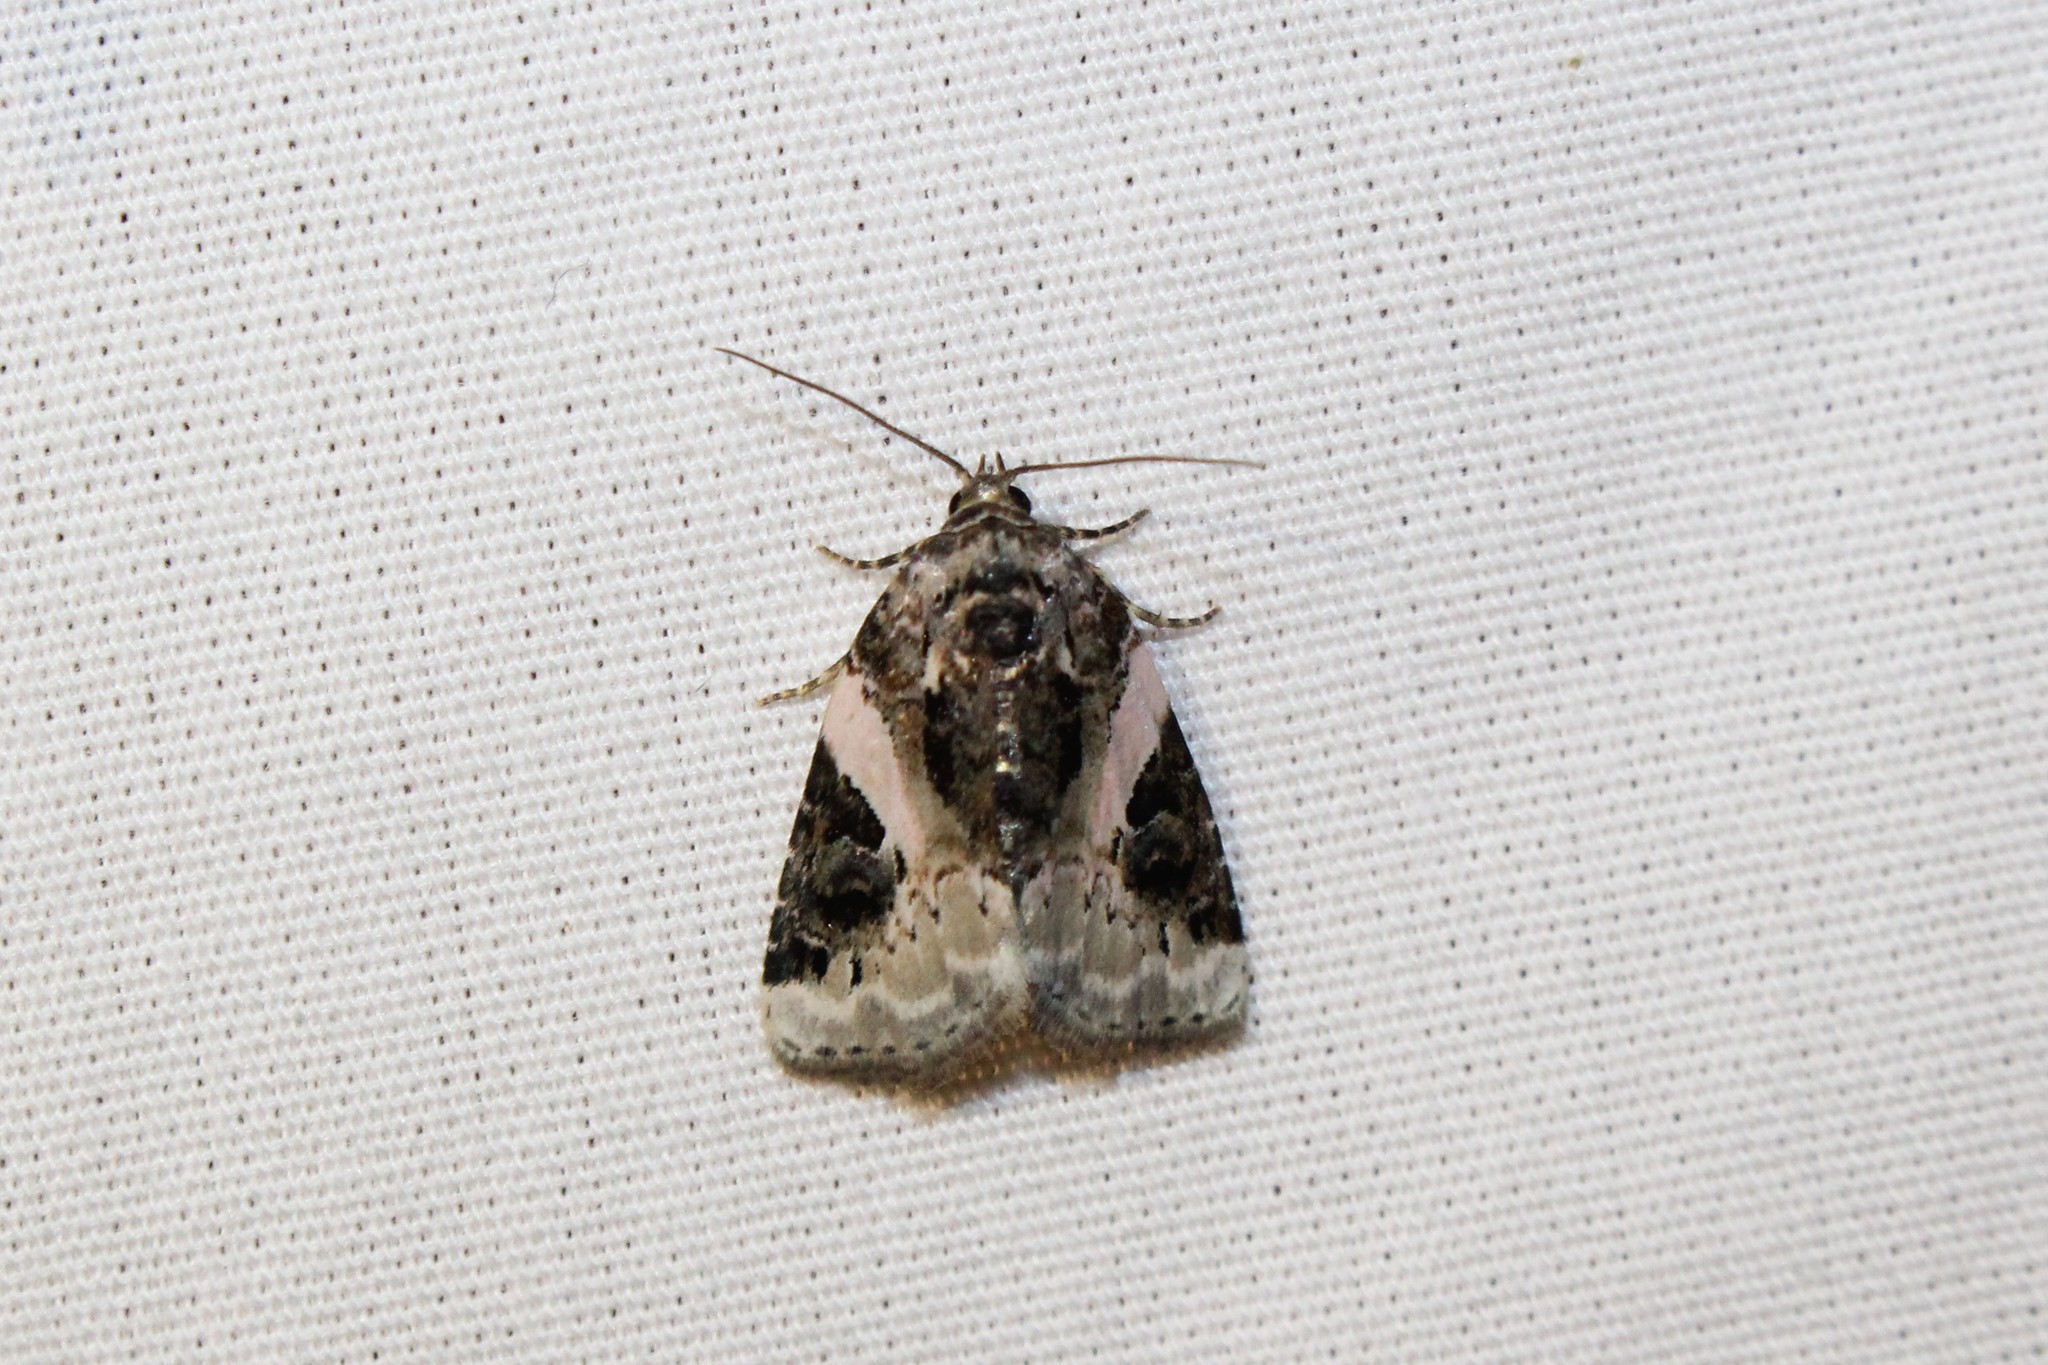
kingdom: Animalia
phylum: Arthropoda
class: Insecta
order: Lepidoptera
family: Noctuidae
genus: Pseudeustrotia
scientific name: Pseudeustrotia carneola
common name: Pink-barred lithacodia moth
